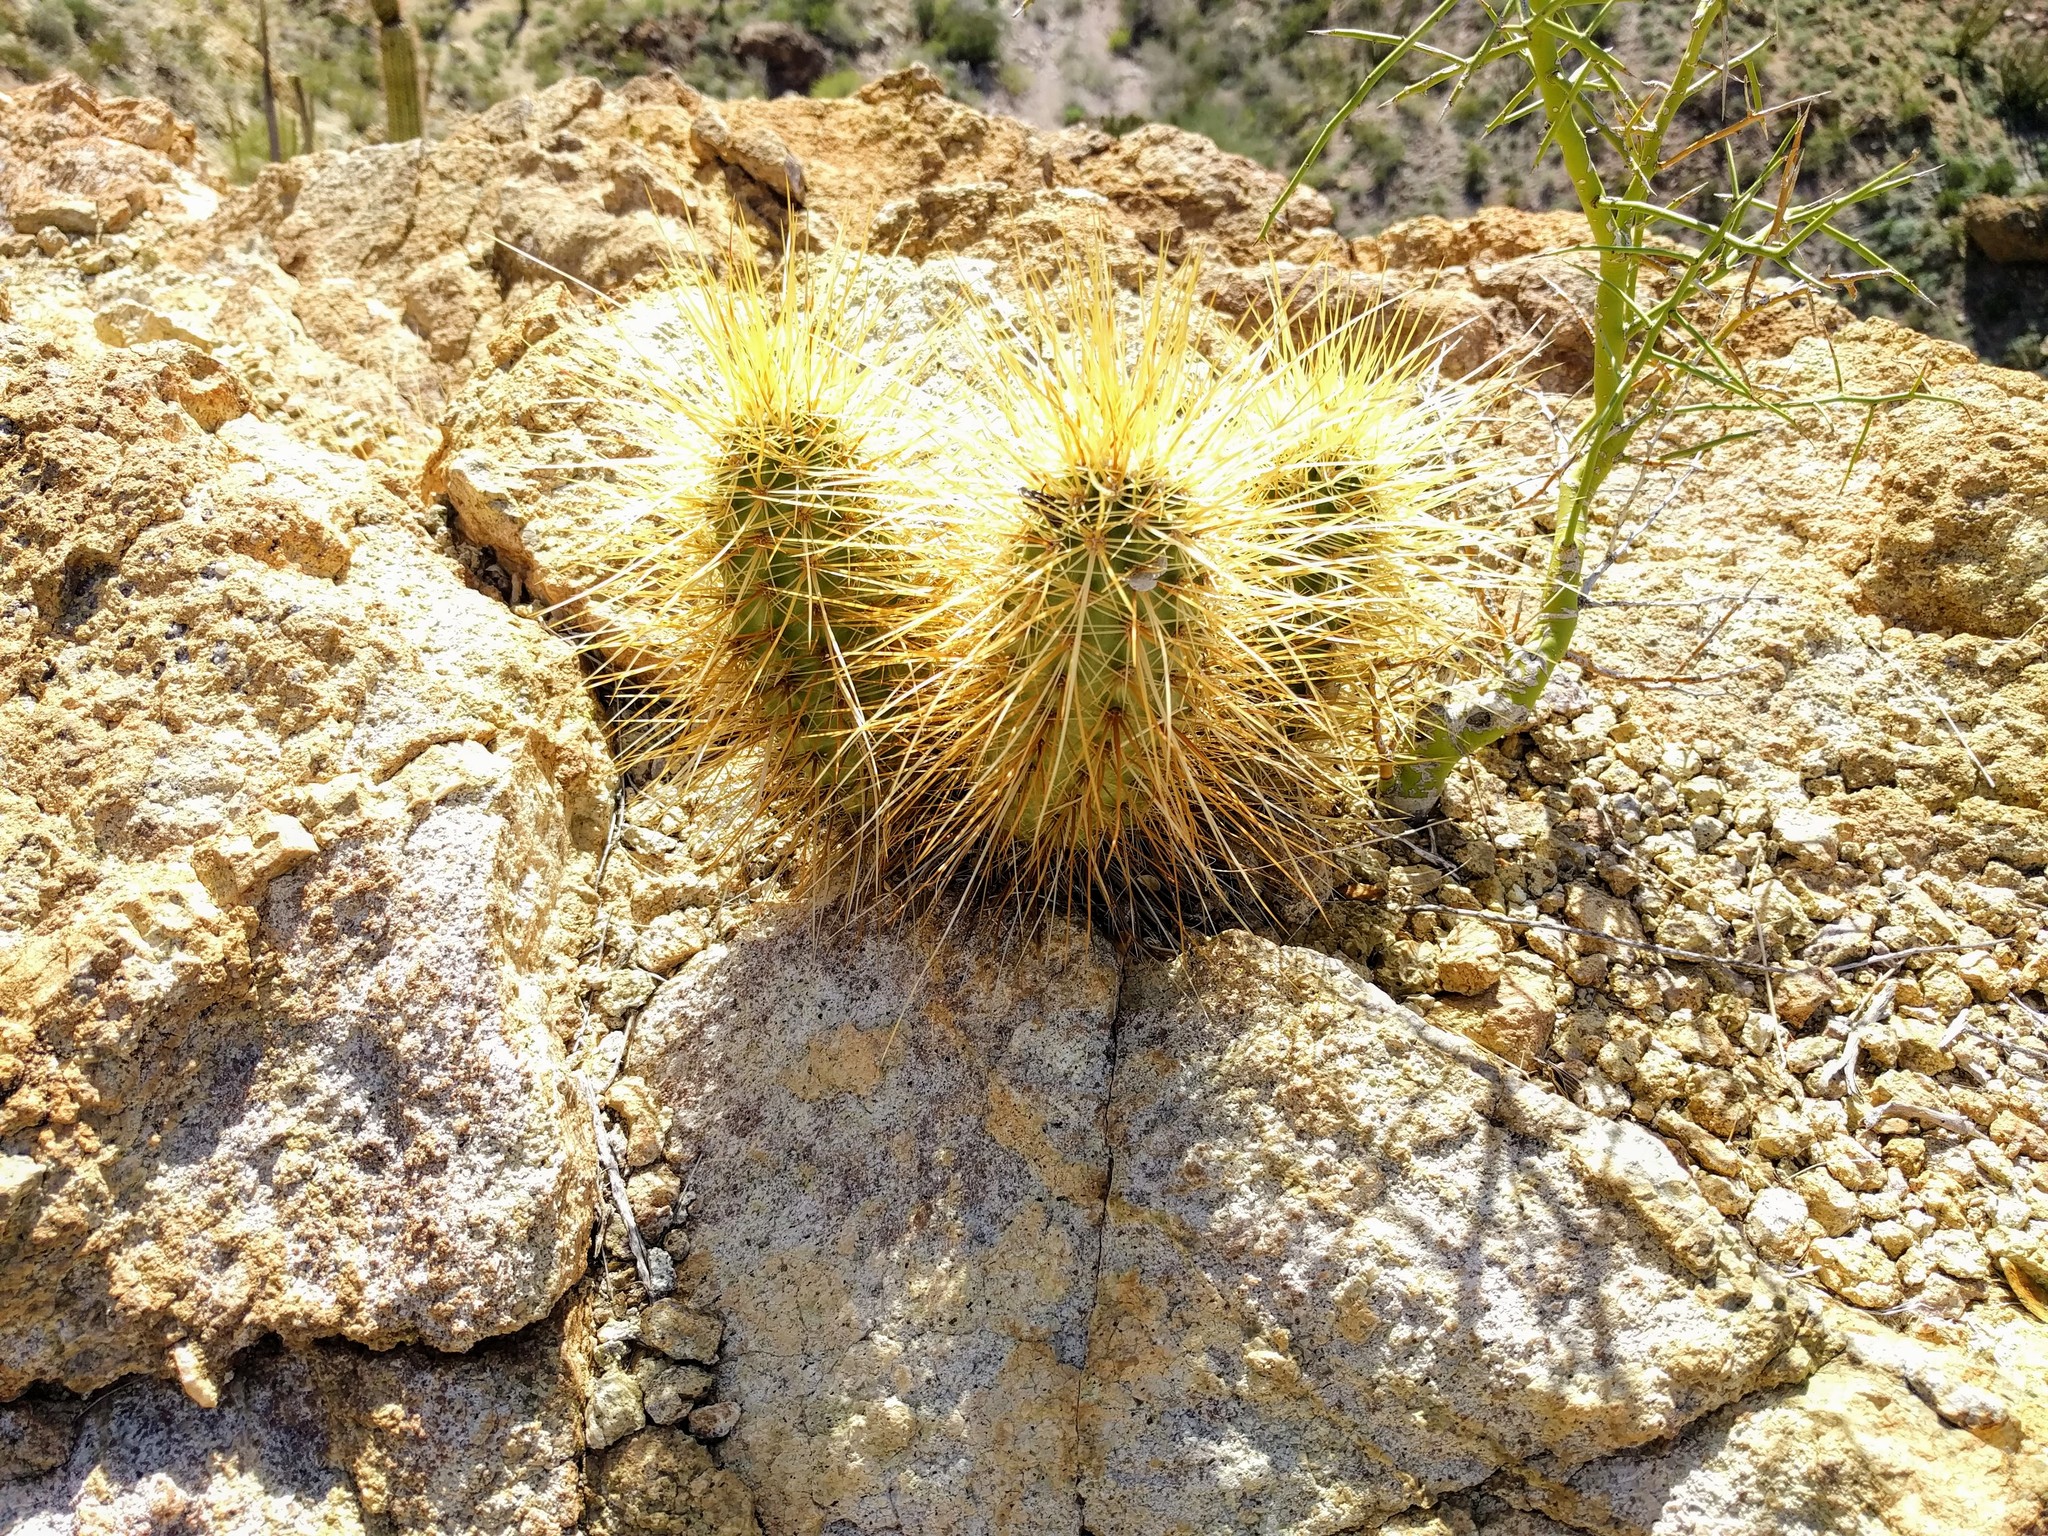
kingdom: Plantae
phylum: Tracheophyta
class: Magnoliopsida
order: Caryophyllales
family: Cactaceae
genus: Echinocereus
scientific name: Echinocereus nicholii
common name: Nichol's hedgehog cactus
